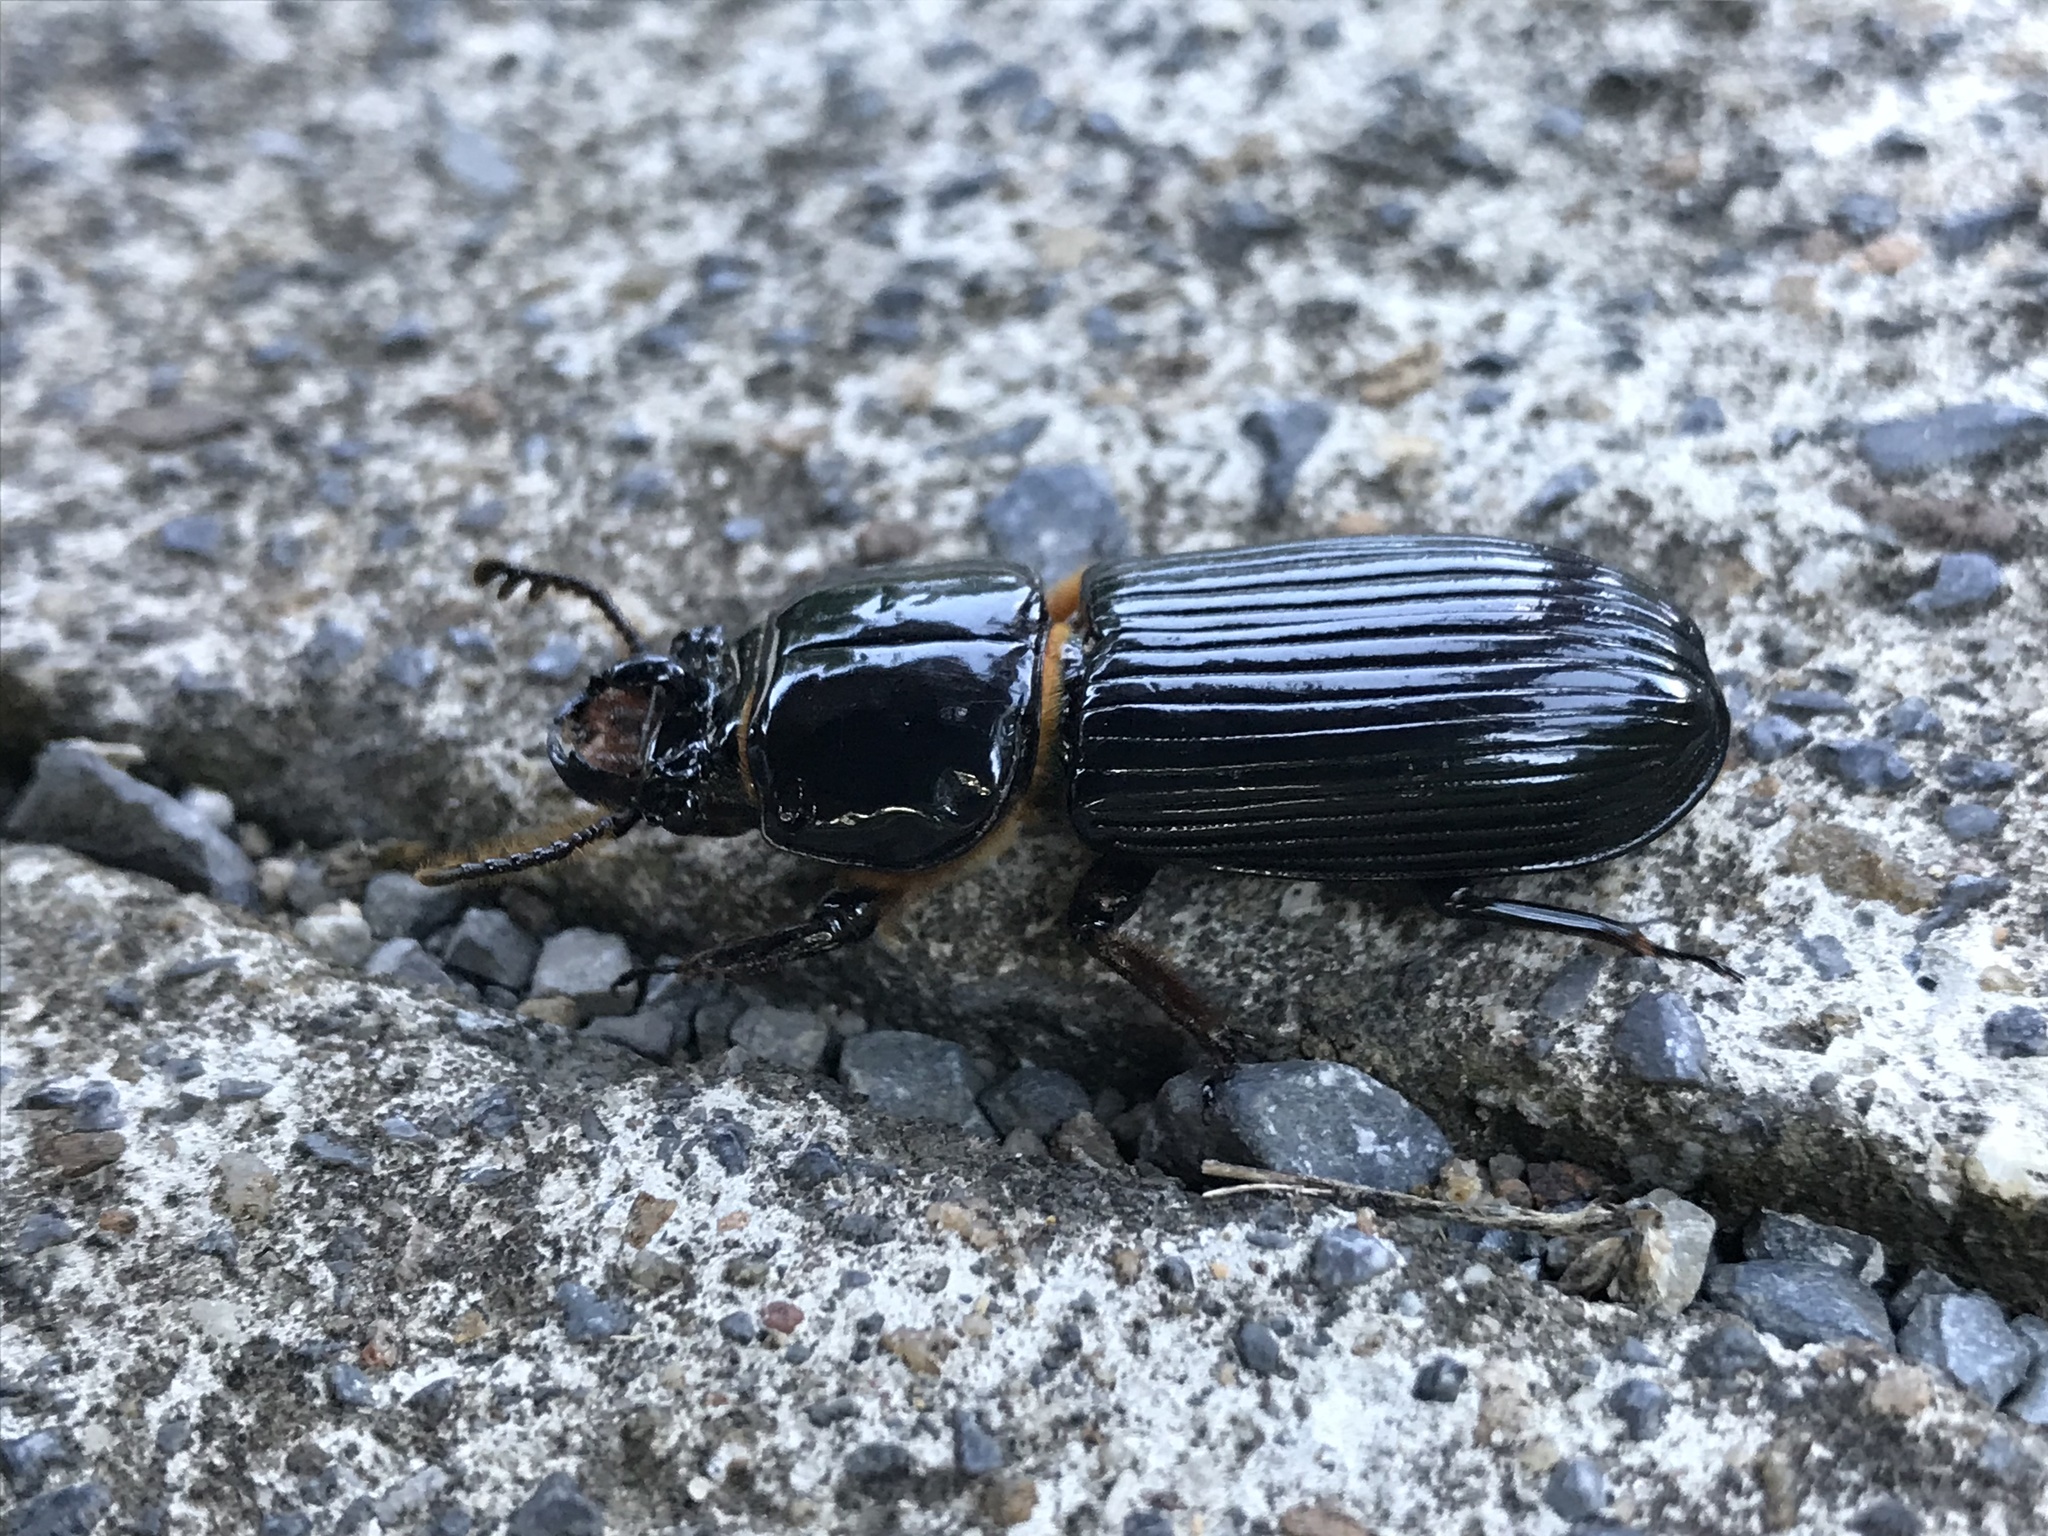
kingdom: Animalia
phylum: Arthropoda
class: Insecta
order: Coleoptera
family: Passalidae
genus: Odontotaenius
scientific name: Odontotaenius disjunctus
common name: Patent leather beetle
